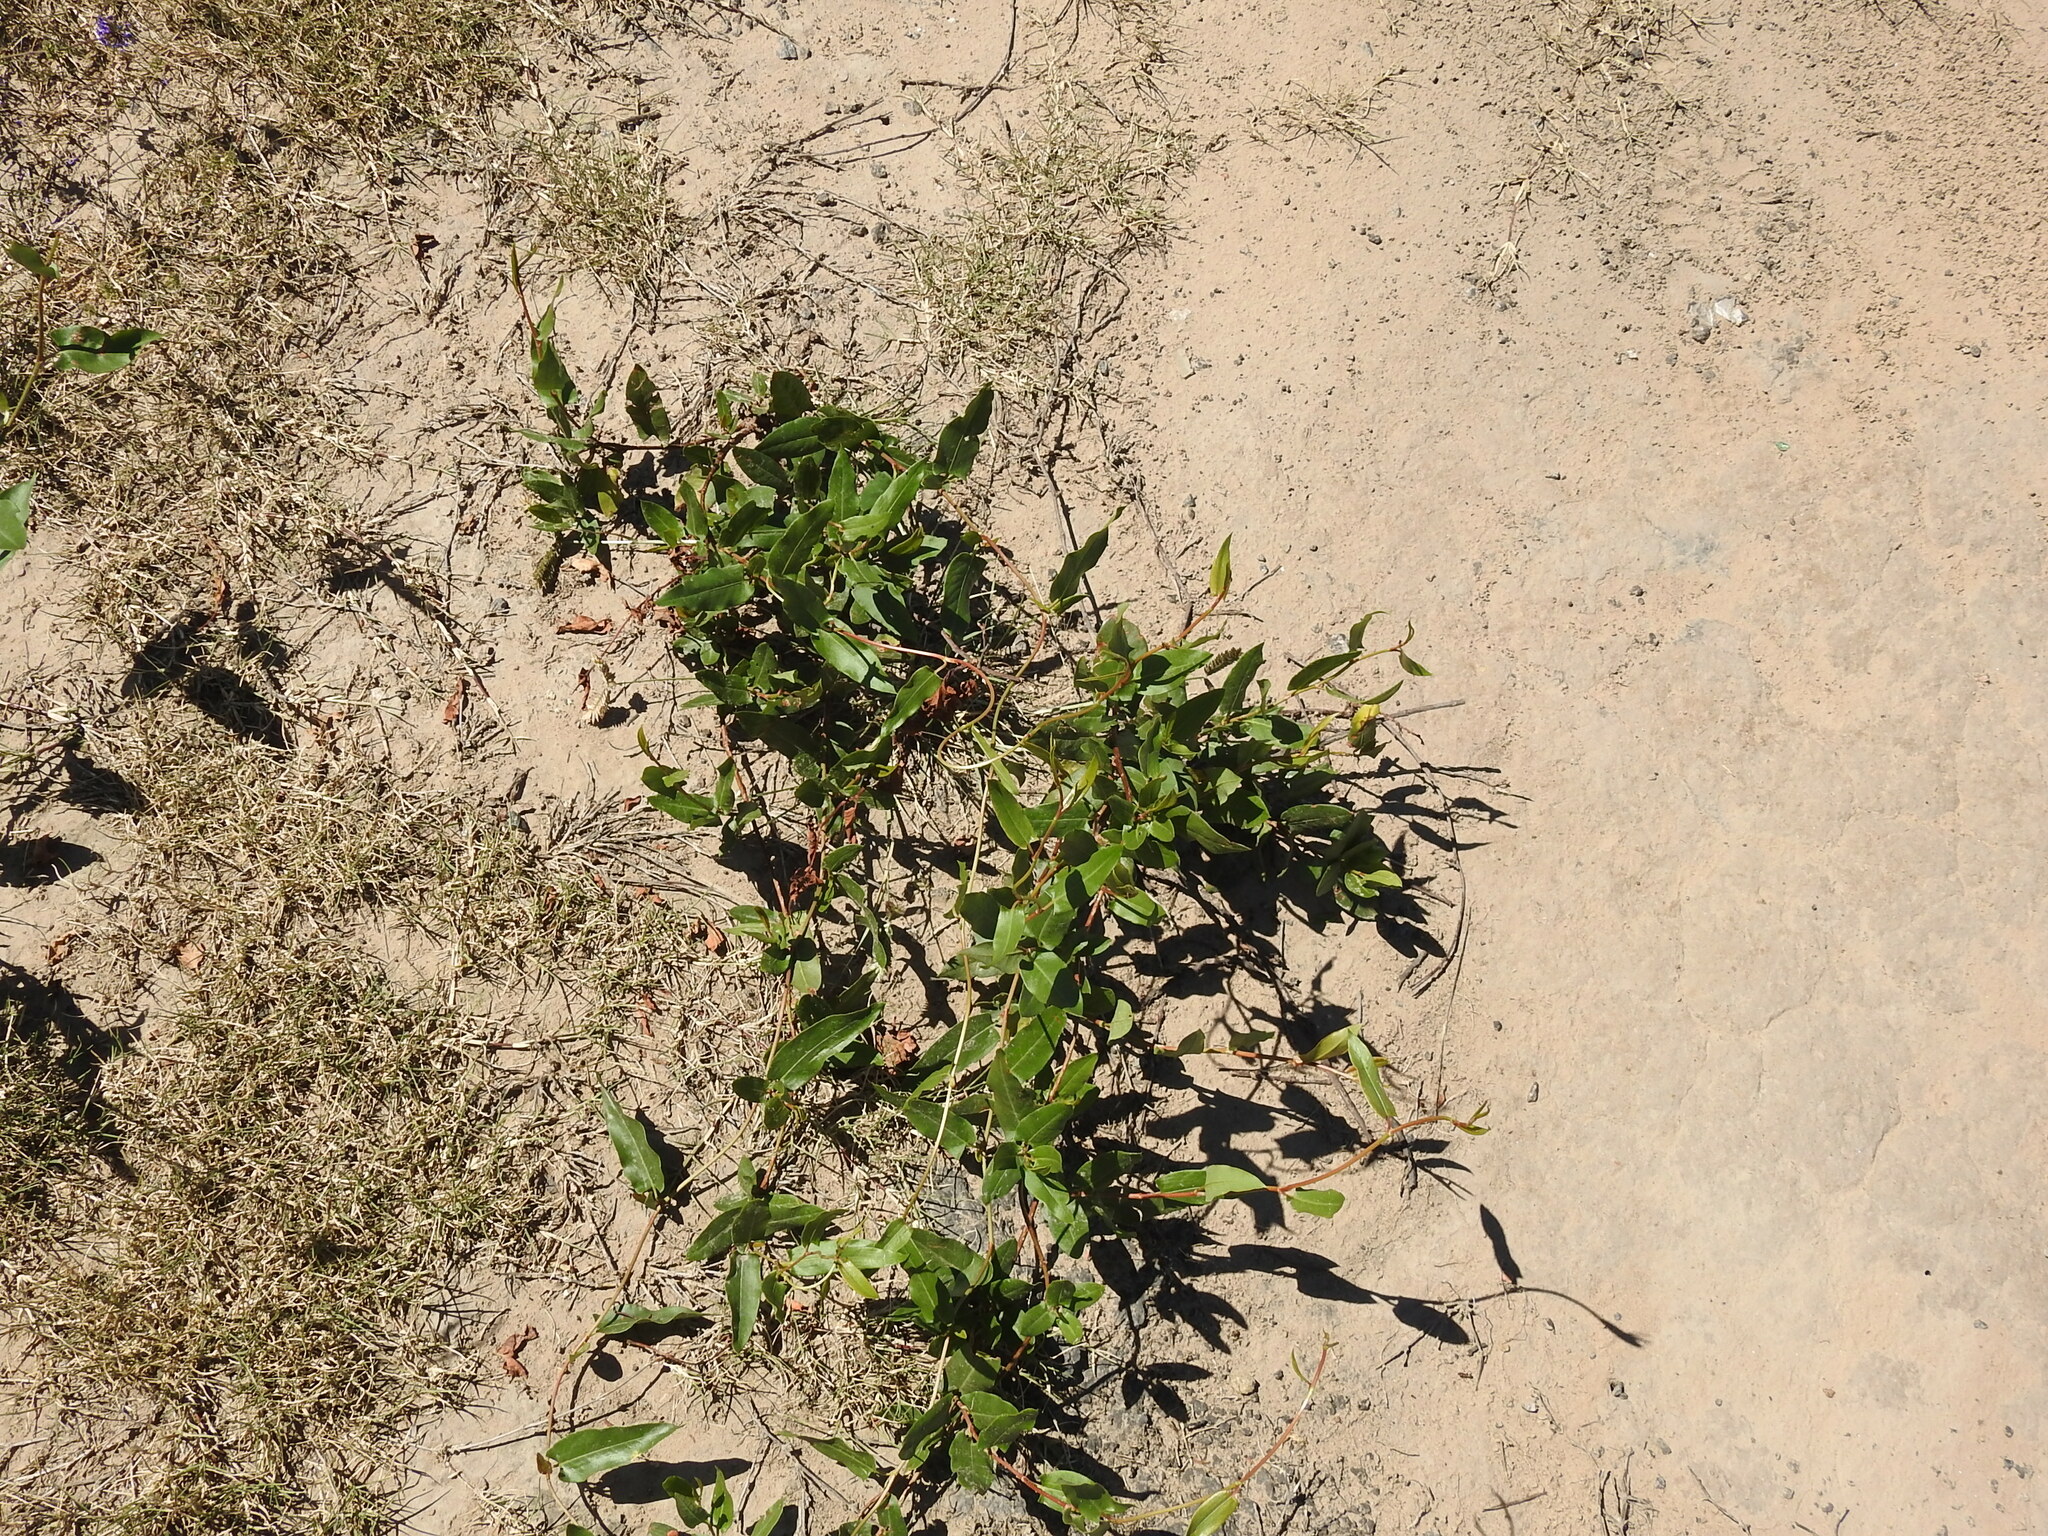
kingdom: Plantae
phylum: Tracheophyta
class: Magnoliopsida
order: Caryophyllales
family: Polygonaceae
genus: Muehlenbeckia
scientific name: Muehlenbeckia sagittifolia
